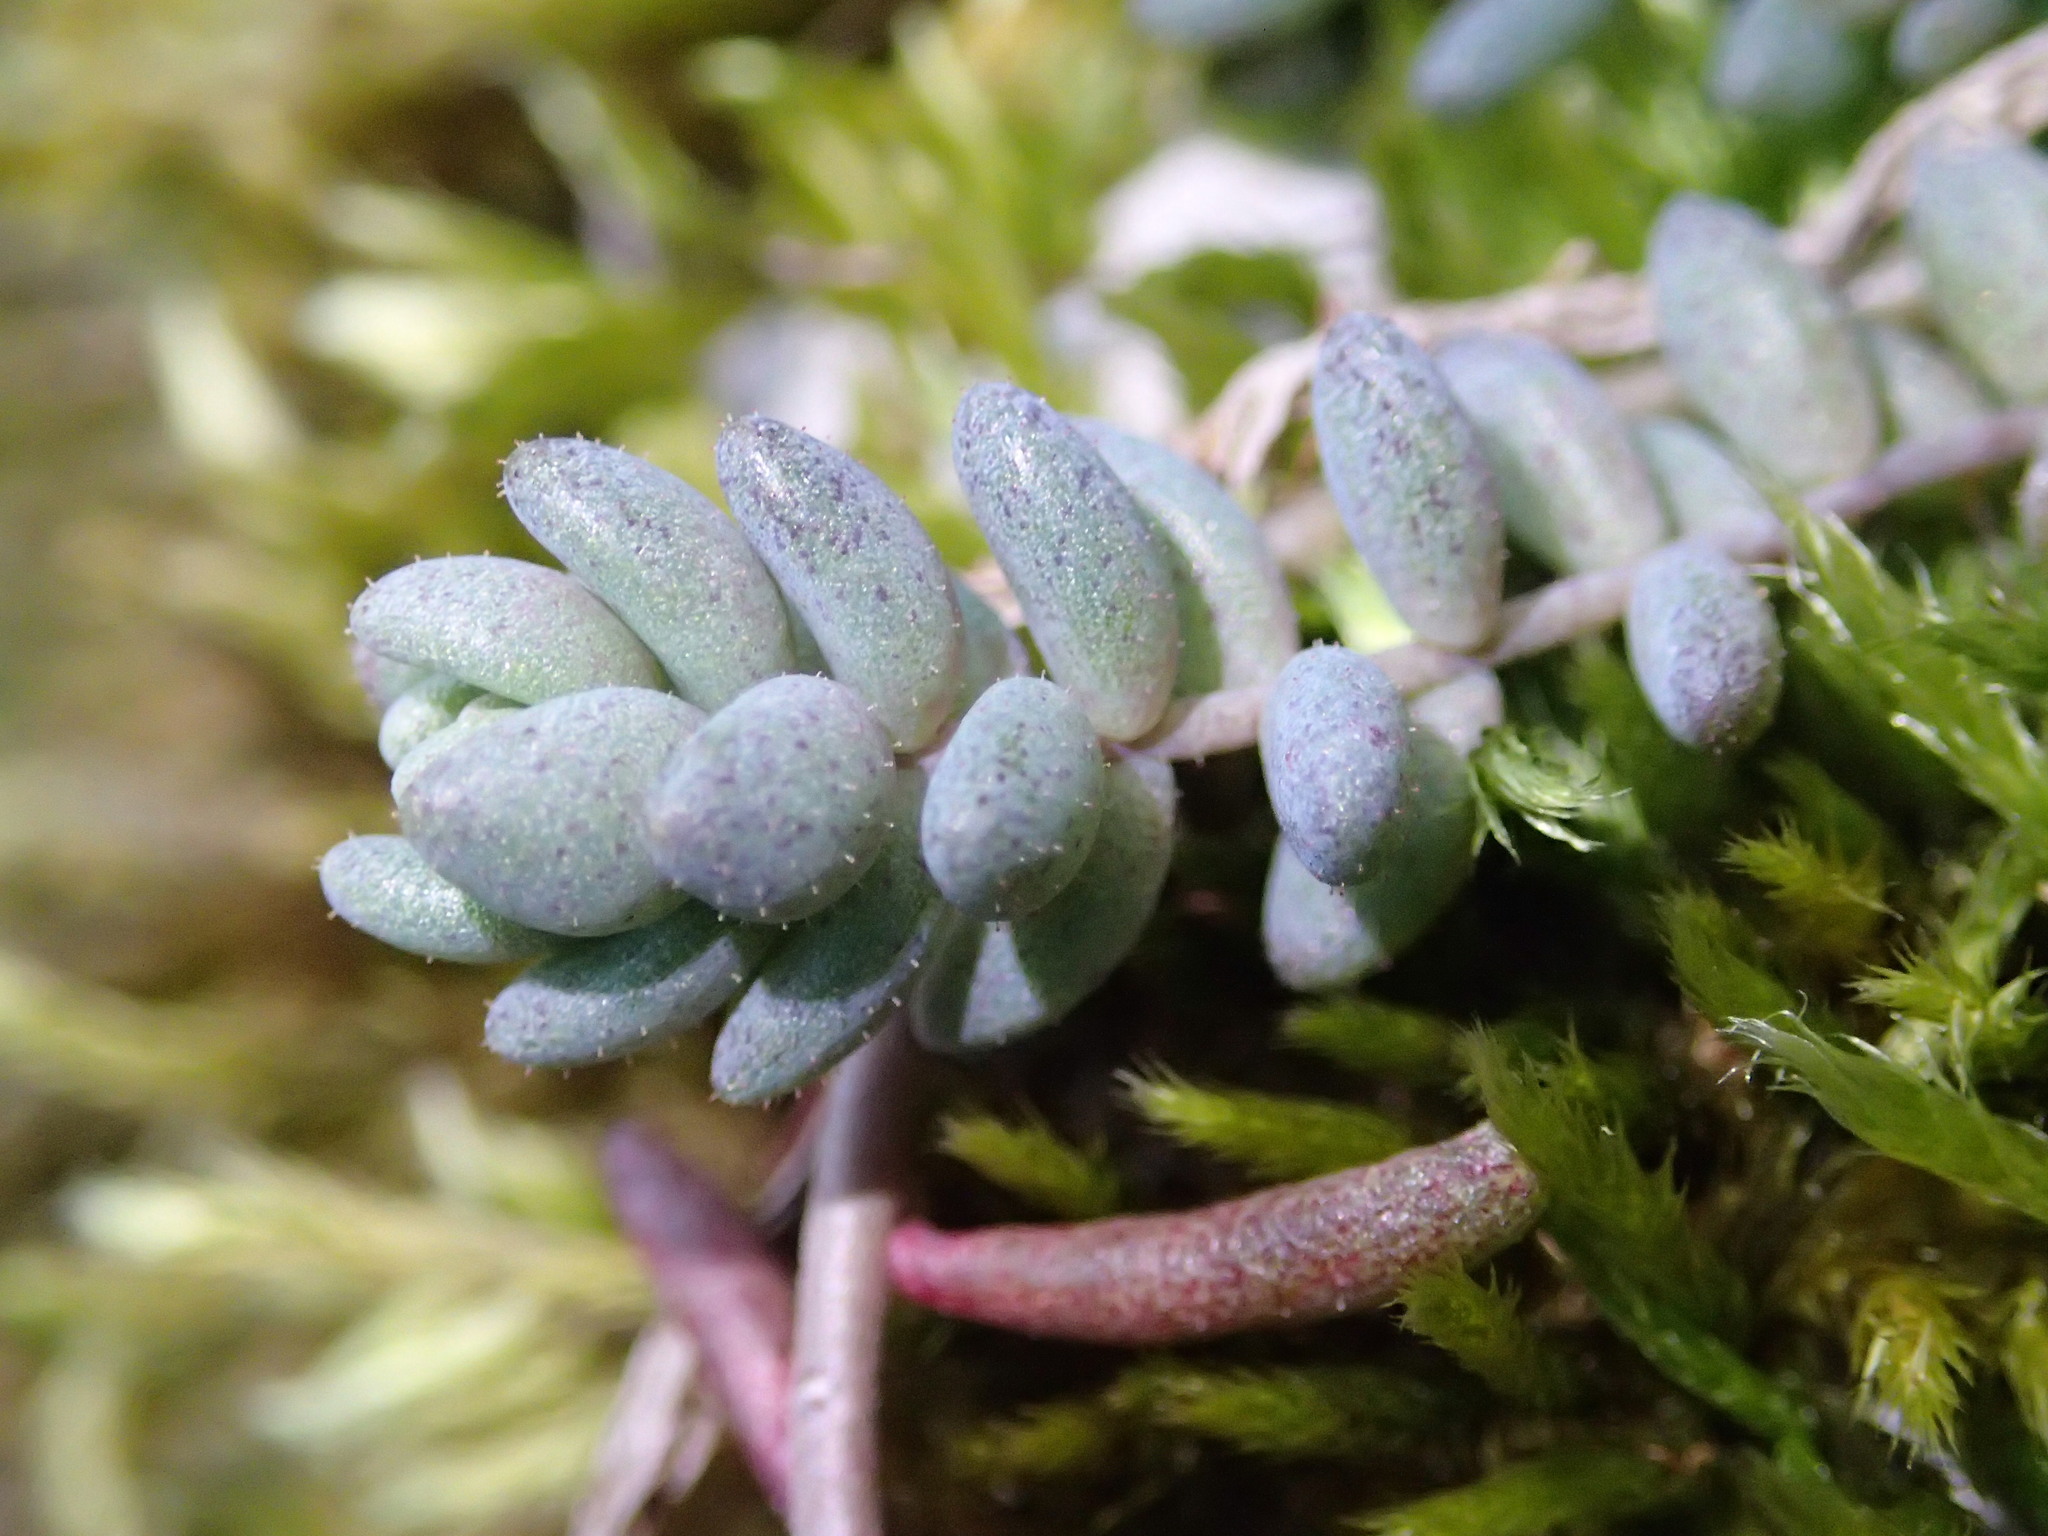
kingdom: Plantae
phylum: Tracheophyta
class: Magnoliopsida
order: Saxifragales
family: Crassulaceae
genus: Sedum
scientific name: Sedum dasyphyllum
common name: Thick-leaf stonecrop
